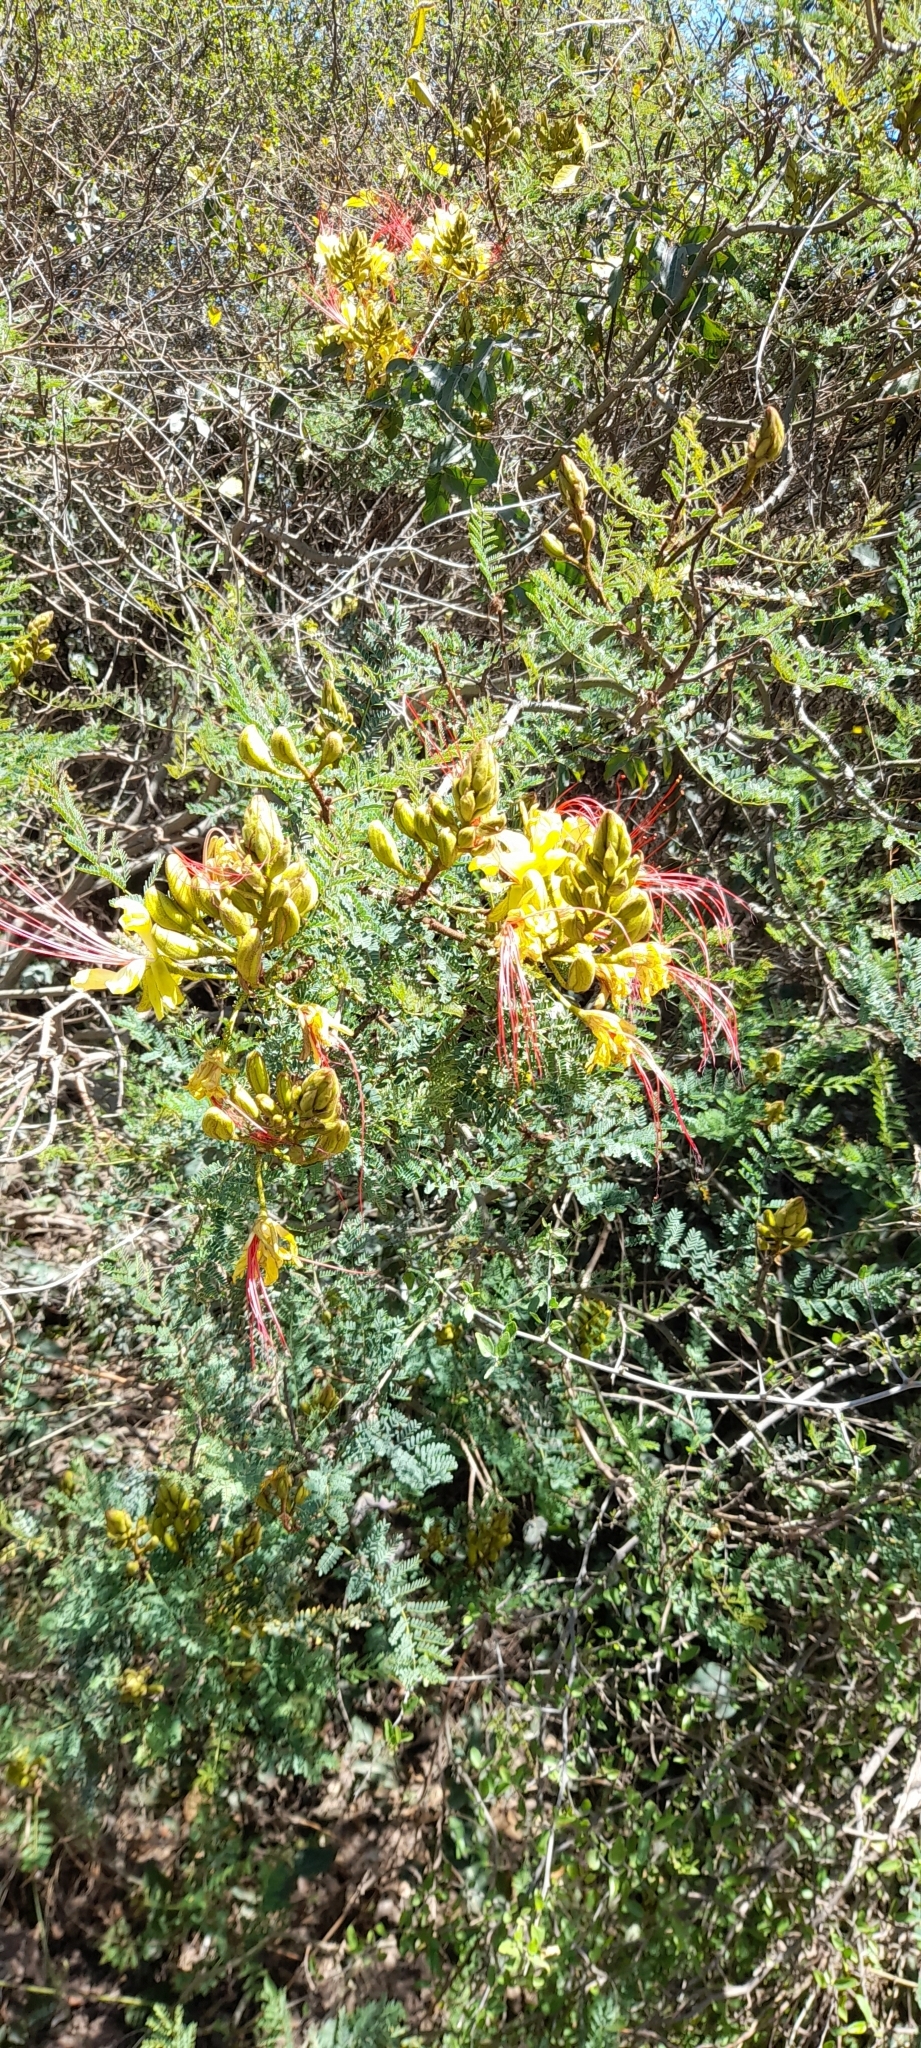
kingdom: Plantae
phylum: Tracheophyta
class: Magnoliopsida
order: Fabales
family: Fabaceae
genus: Erythrostemon
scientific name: Erythrostemon gilliesii
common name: Bird-of-paradise shrub
